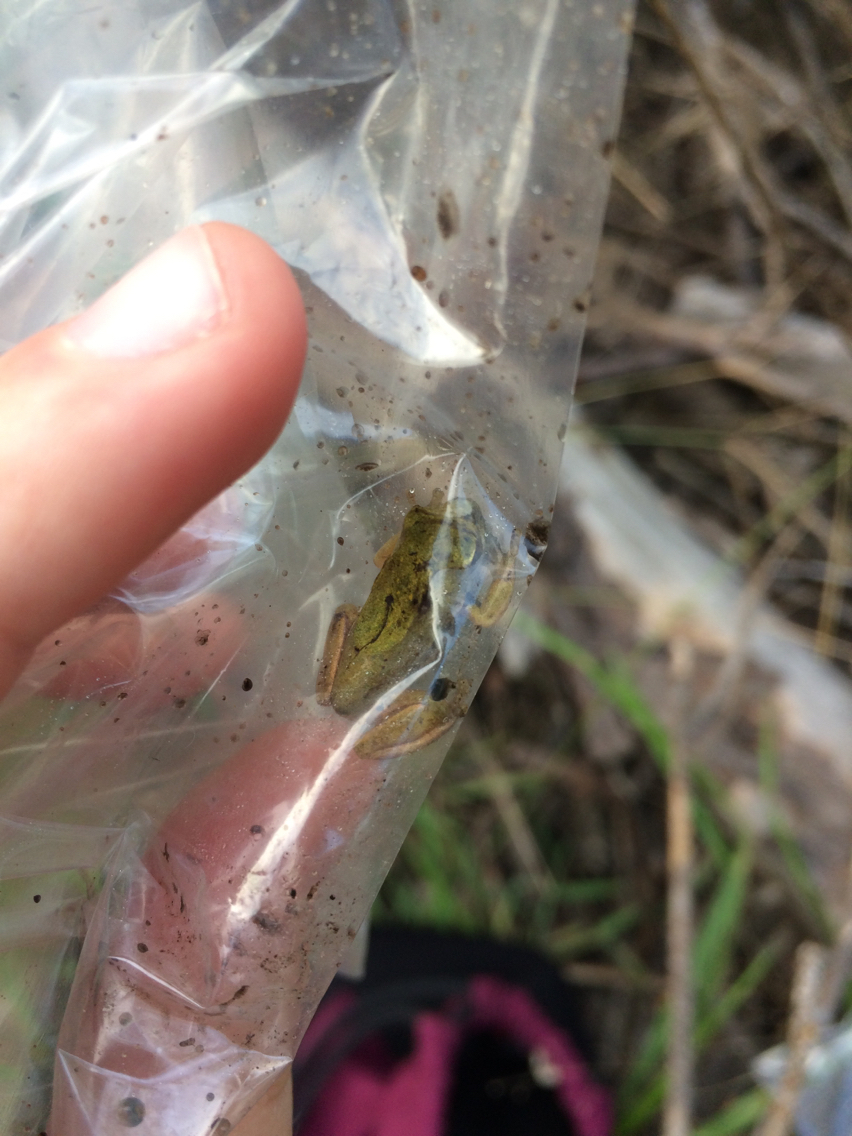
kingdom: Animalia
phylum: Chordata
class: Amphibia
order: Anura
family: Hylidae
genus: Dryophytes
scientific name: Dryophytes cinereus
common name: Green treefrog
